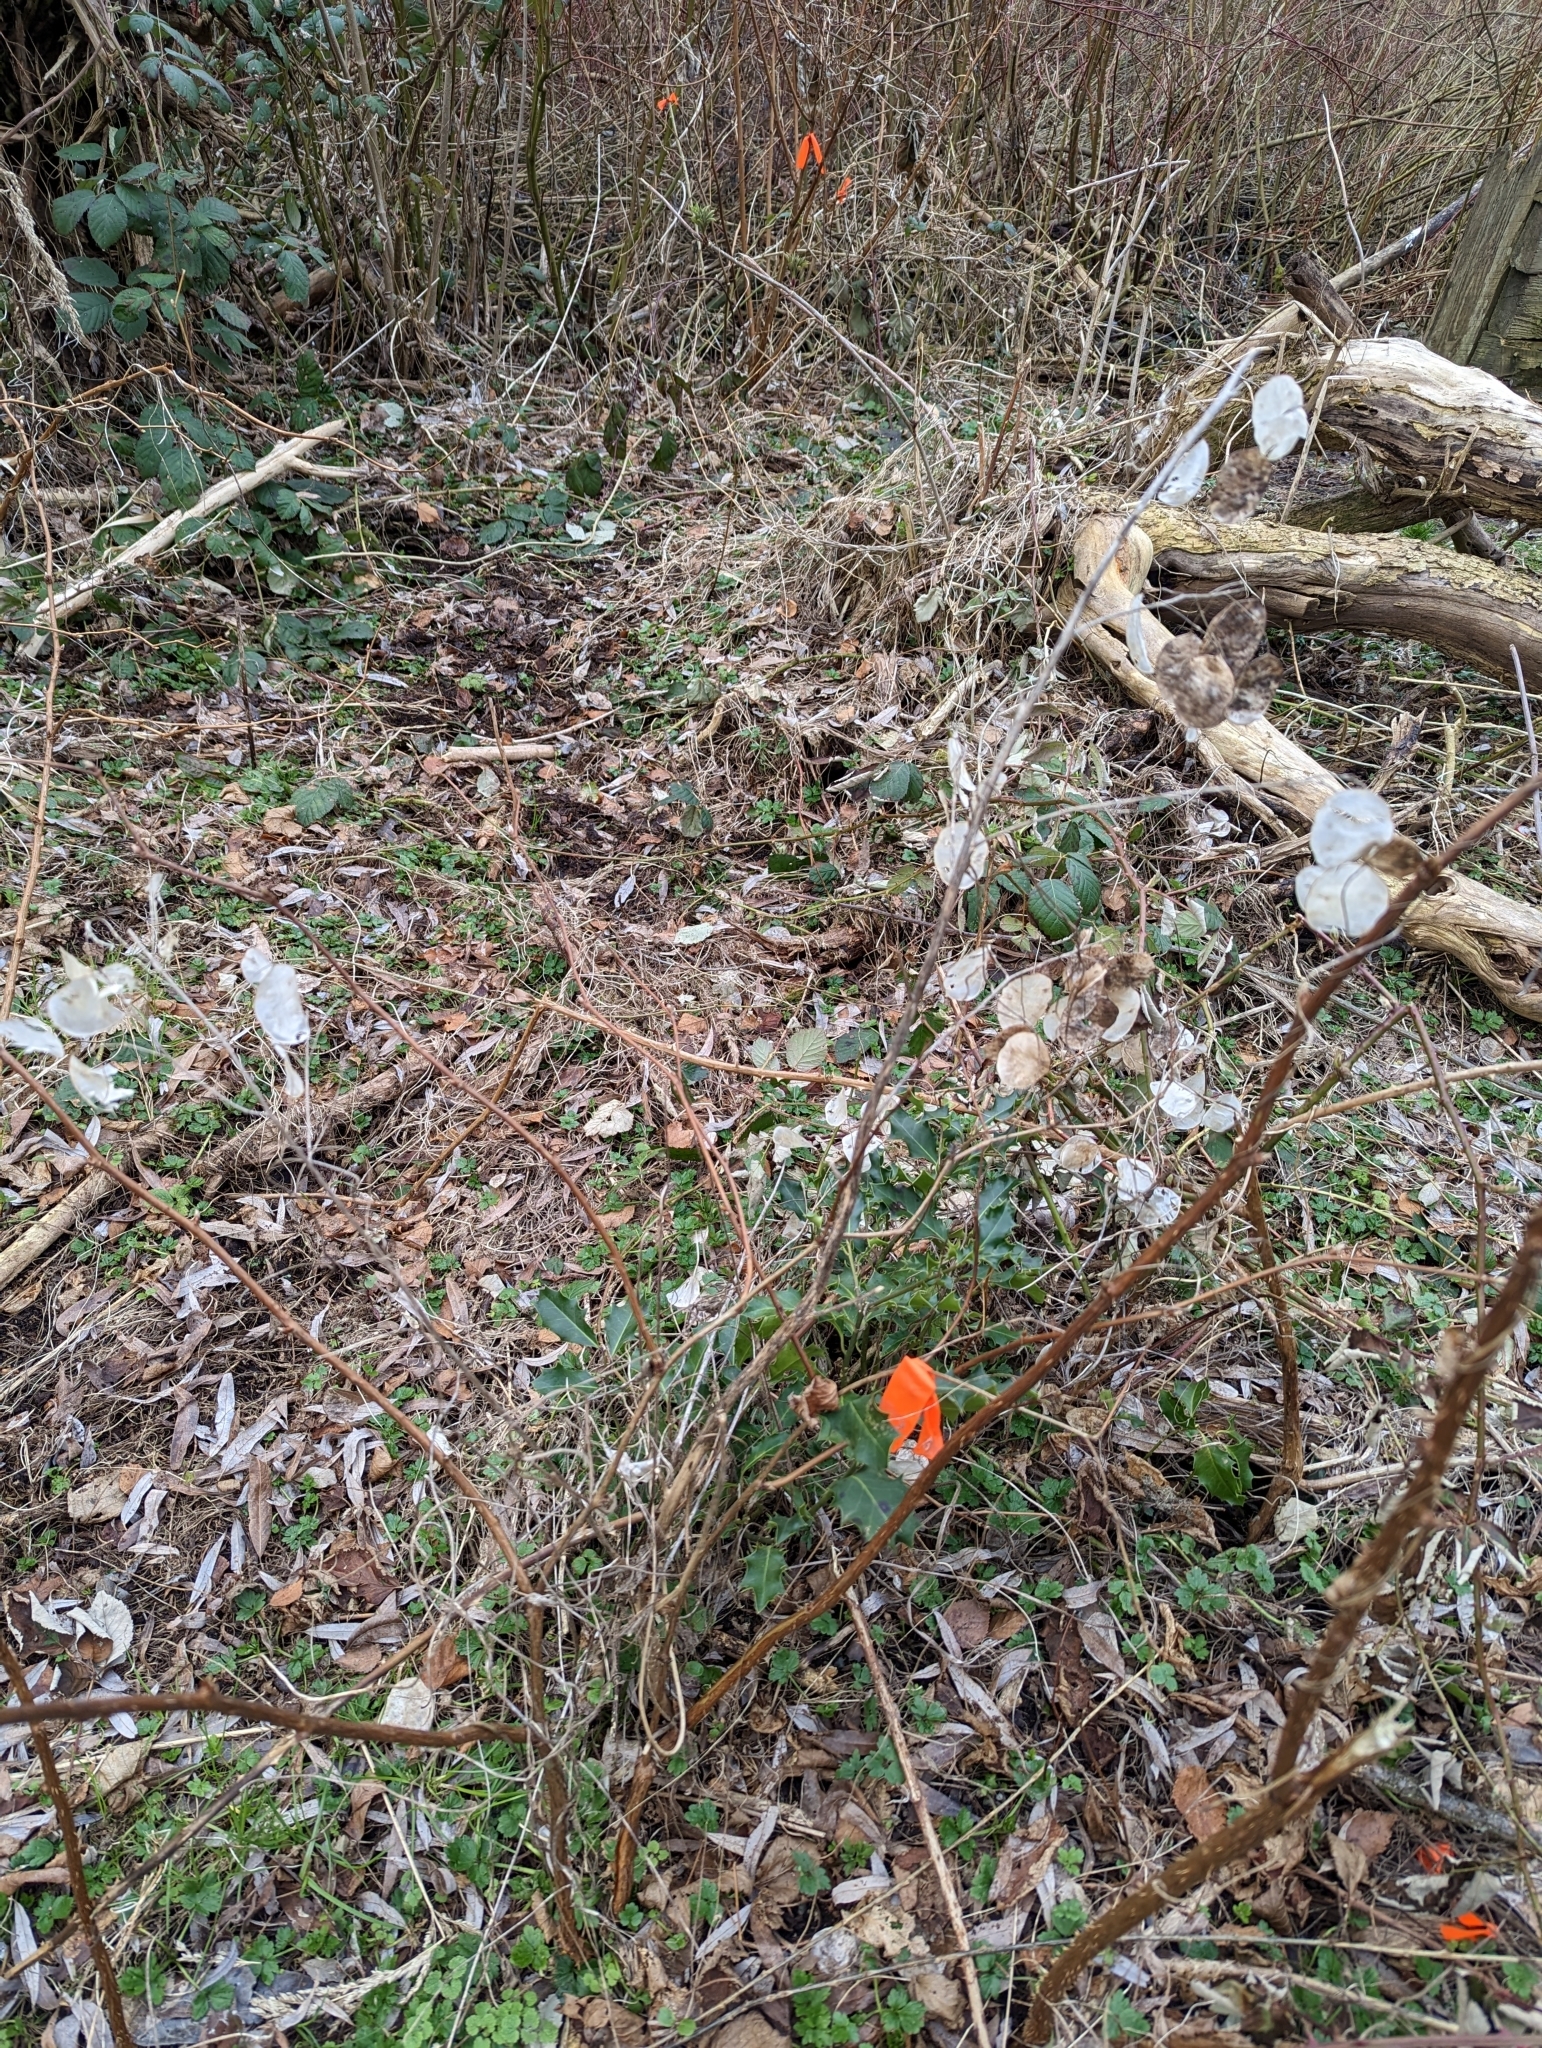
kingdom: Plantae
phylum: Tracheophyta
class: Magnoliopsida
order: Brassicales
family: Brassicaceae
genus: Lunaria
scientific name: Lunaria annua
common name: Honesty
